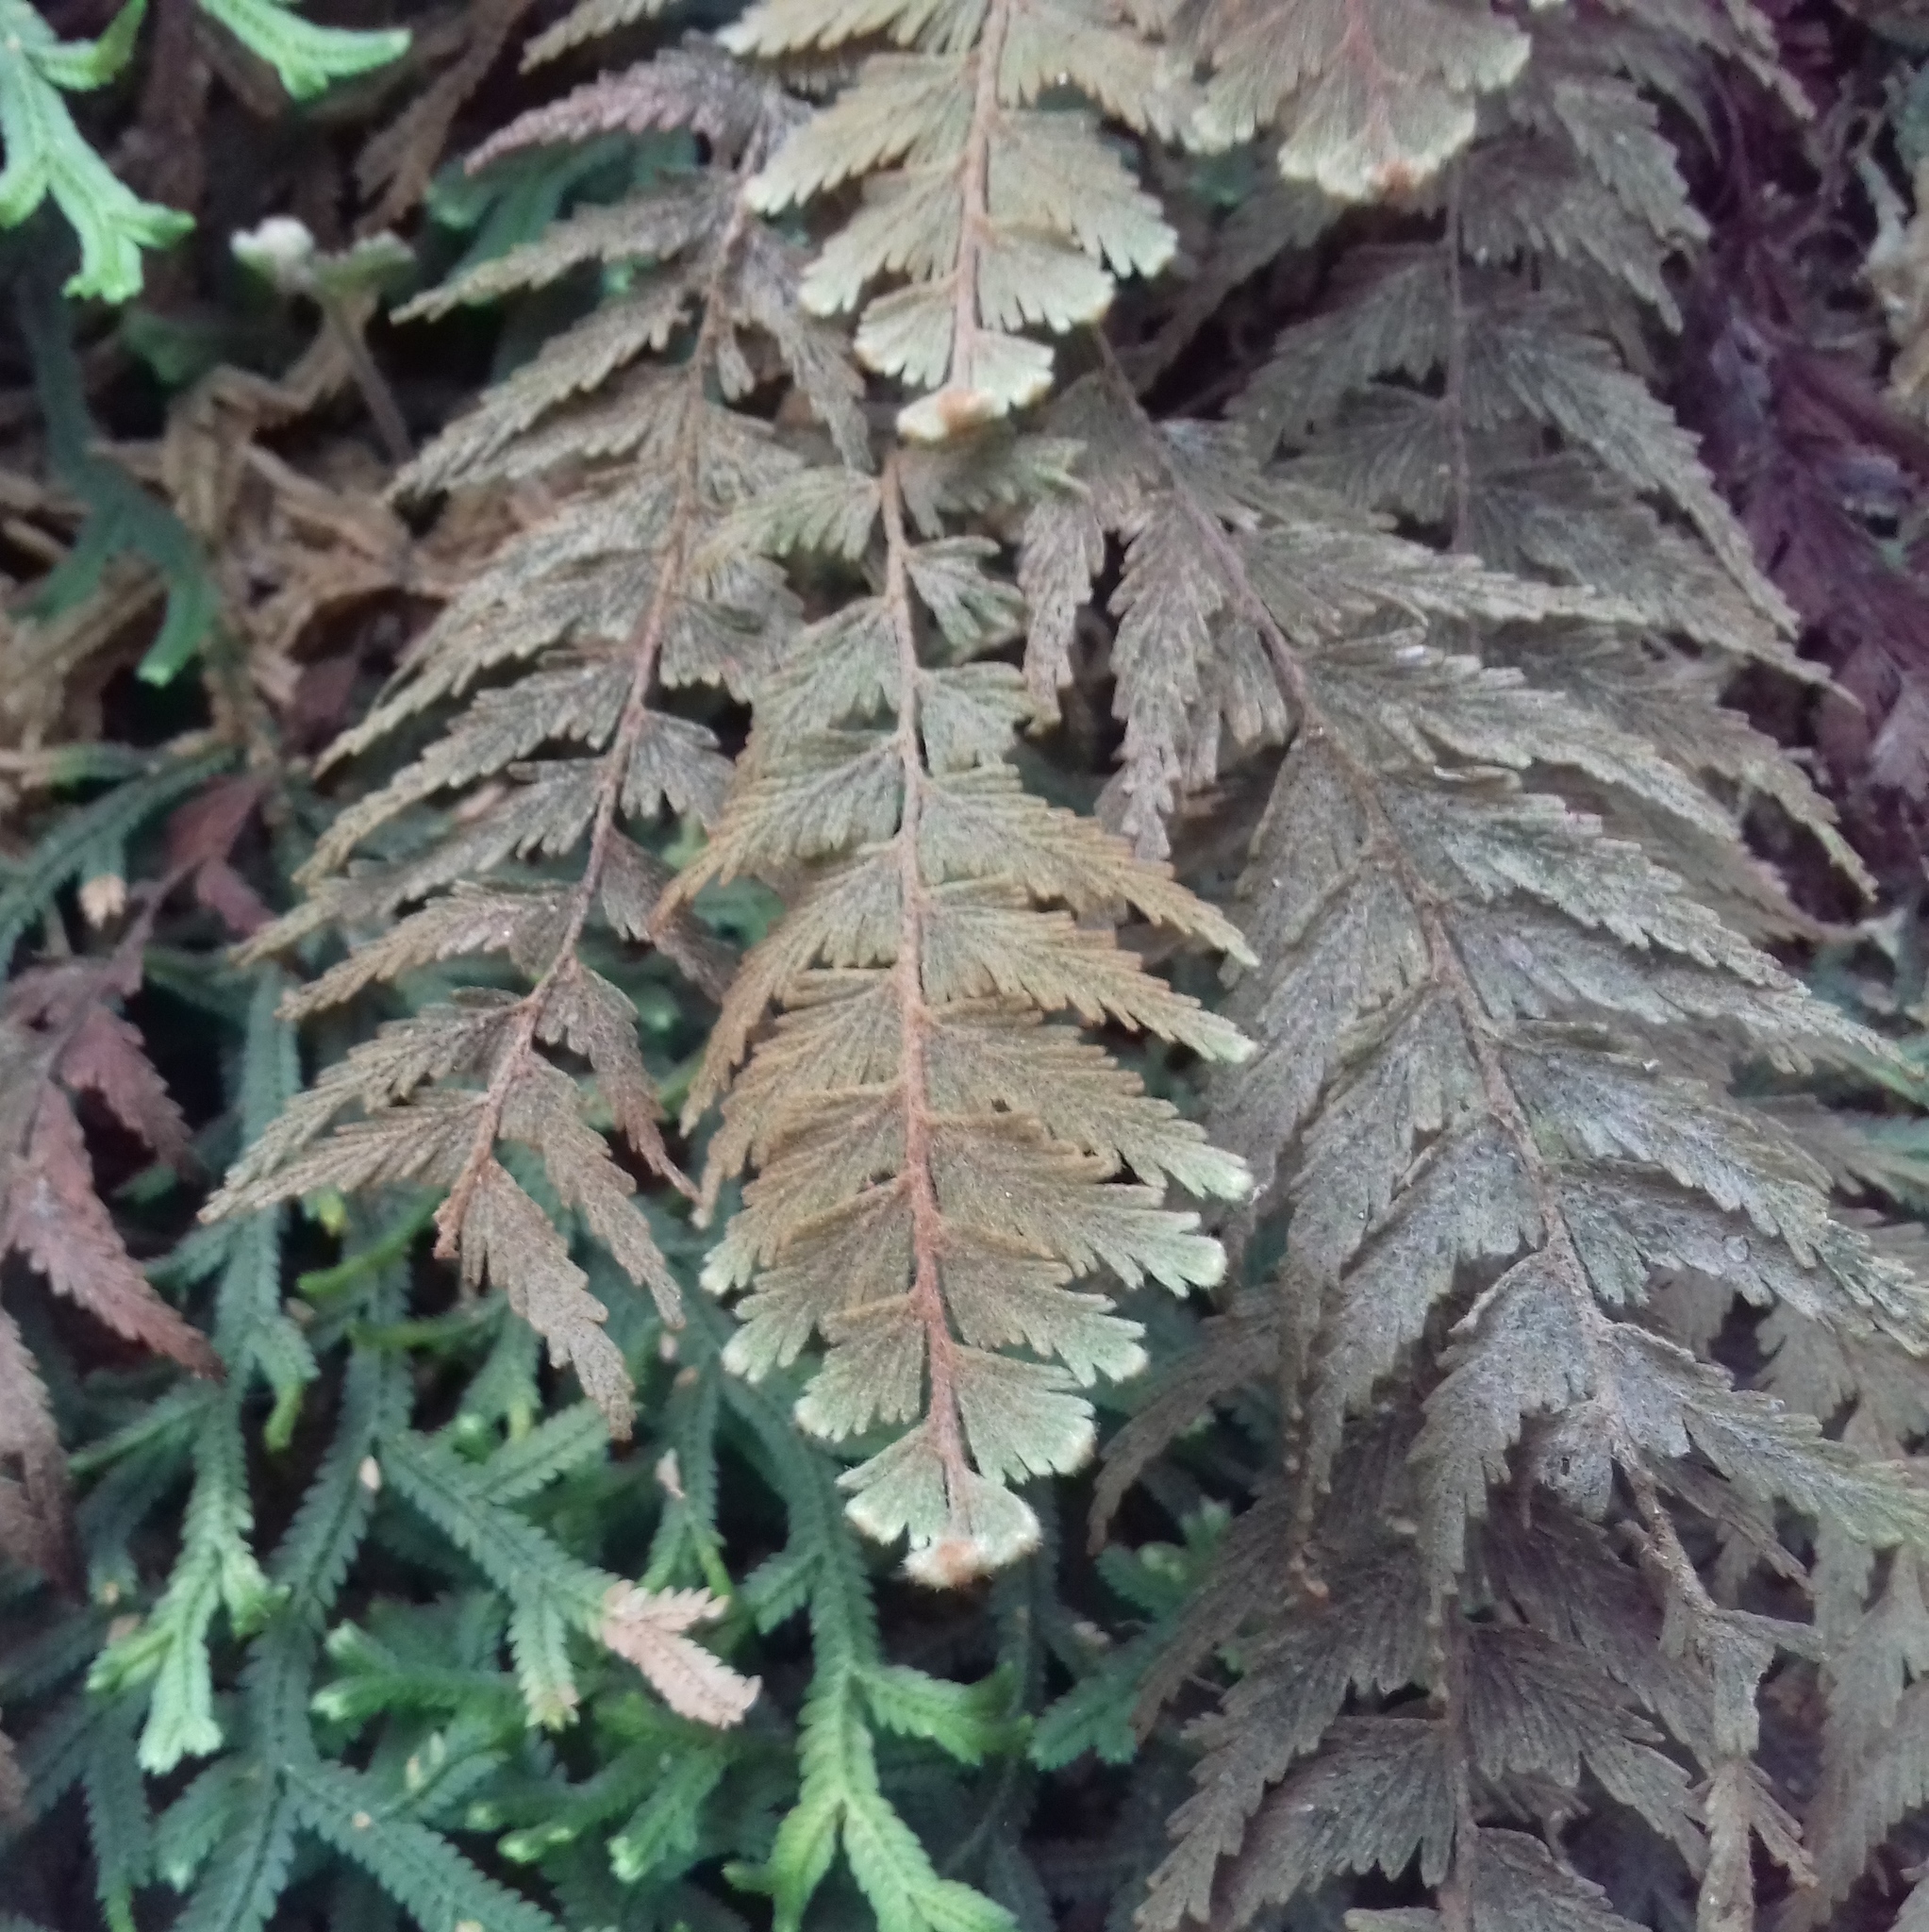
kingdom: Plantae
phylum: Tracheophyta
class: Polypodiopsida
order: Hymenophyllales
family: Hymenophyllaceae
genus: Hymenophyllum
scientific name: Hymenophyllum plumosum
